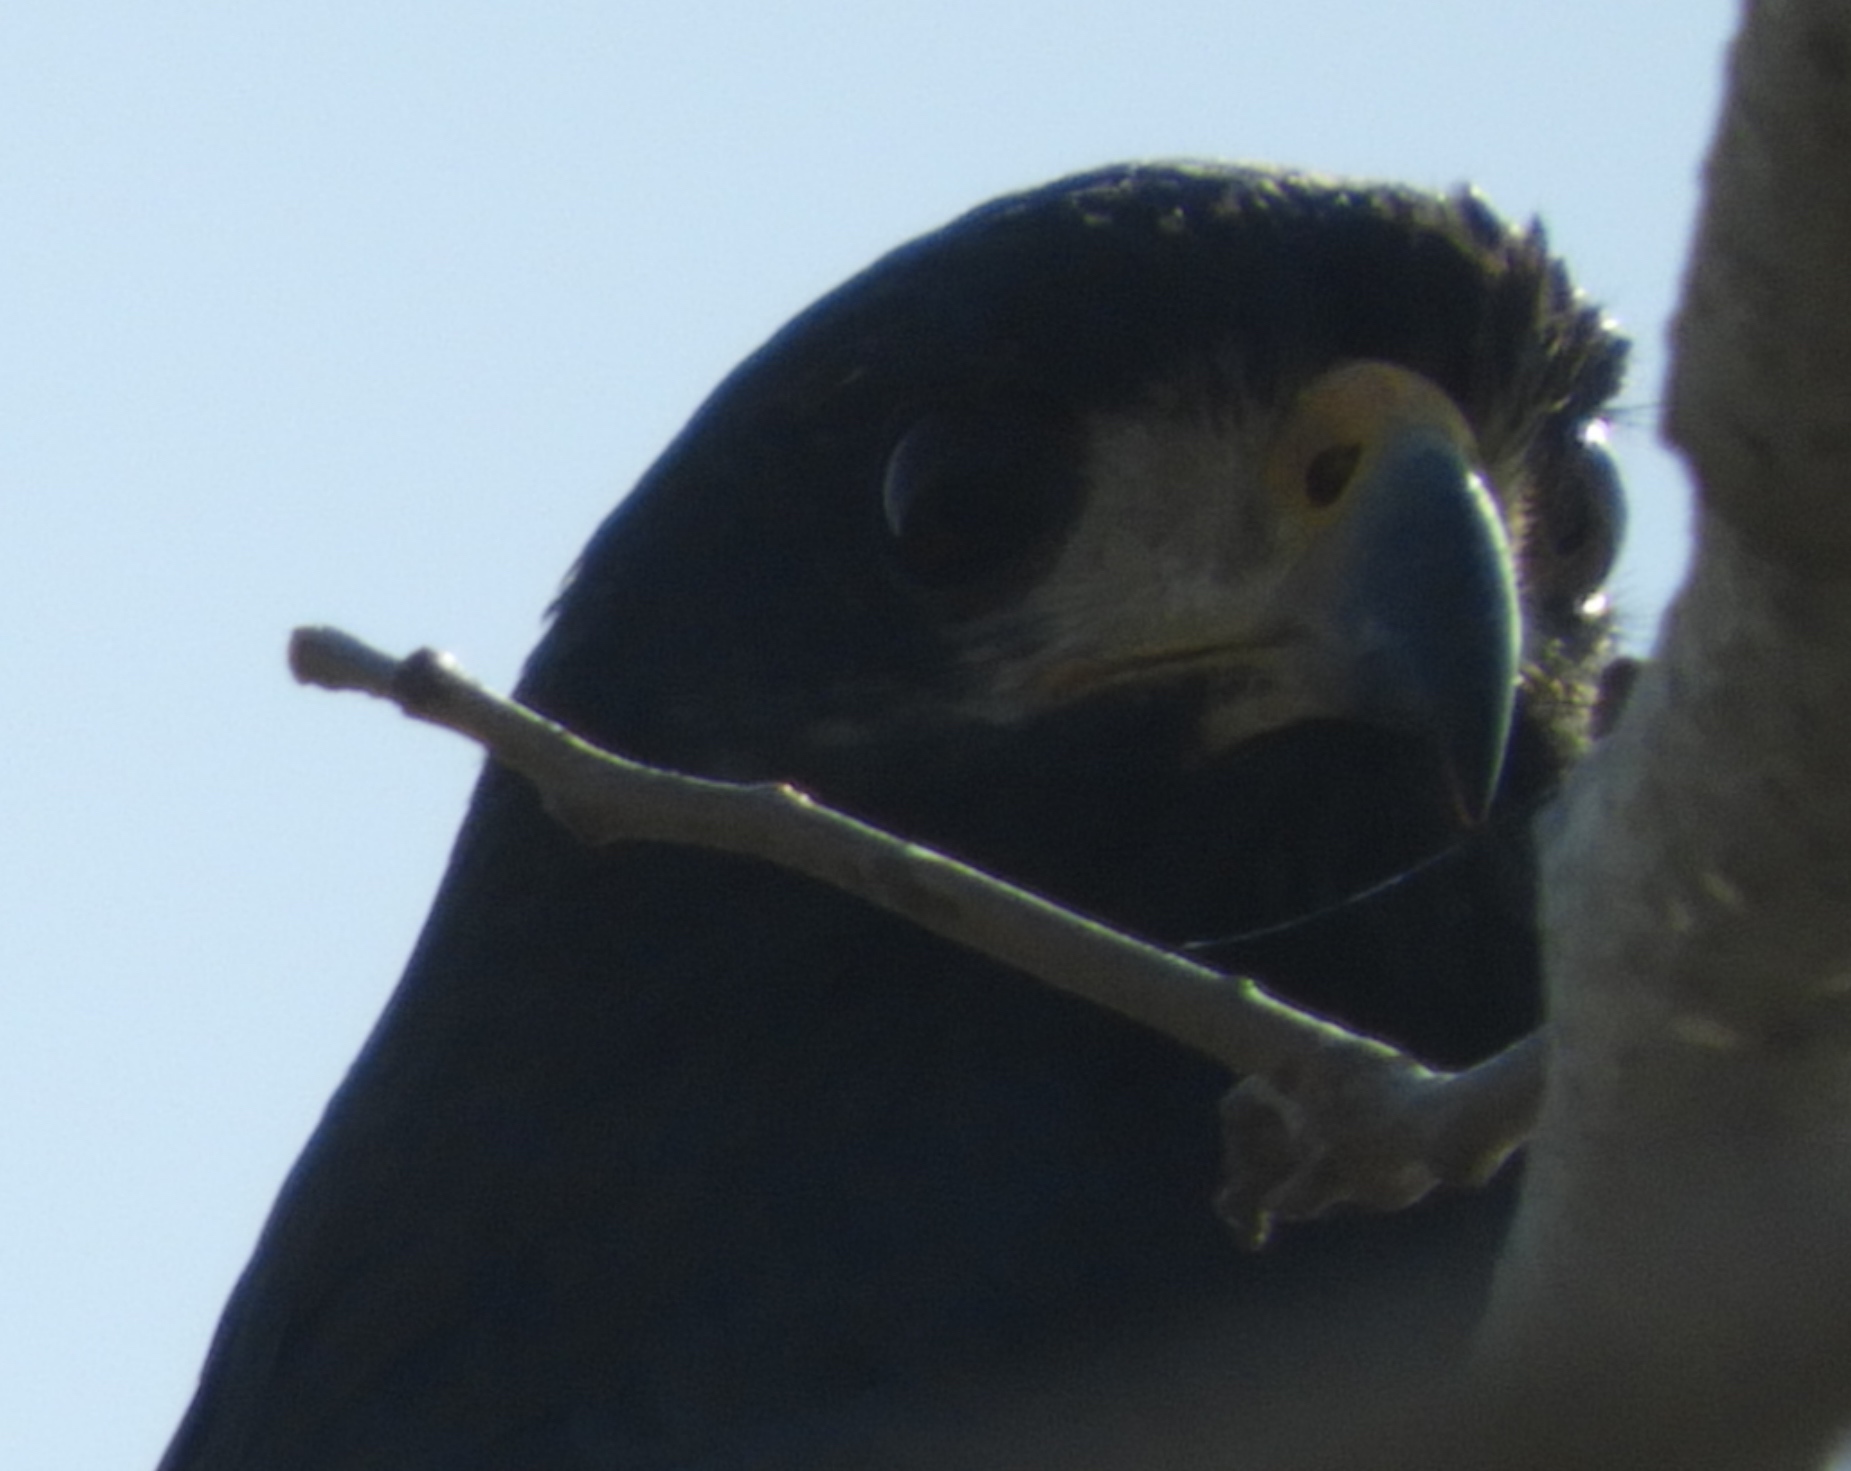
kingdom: Animalia
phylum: Chordata
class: Aves
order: Accipitriformes
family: Accipitridae
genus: Buteogallus
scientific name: Buteogallus anthracinus
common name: Common black hawk
